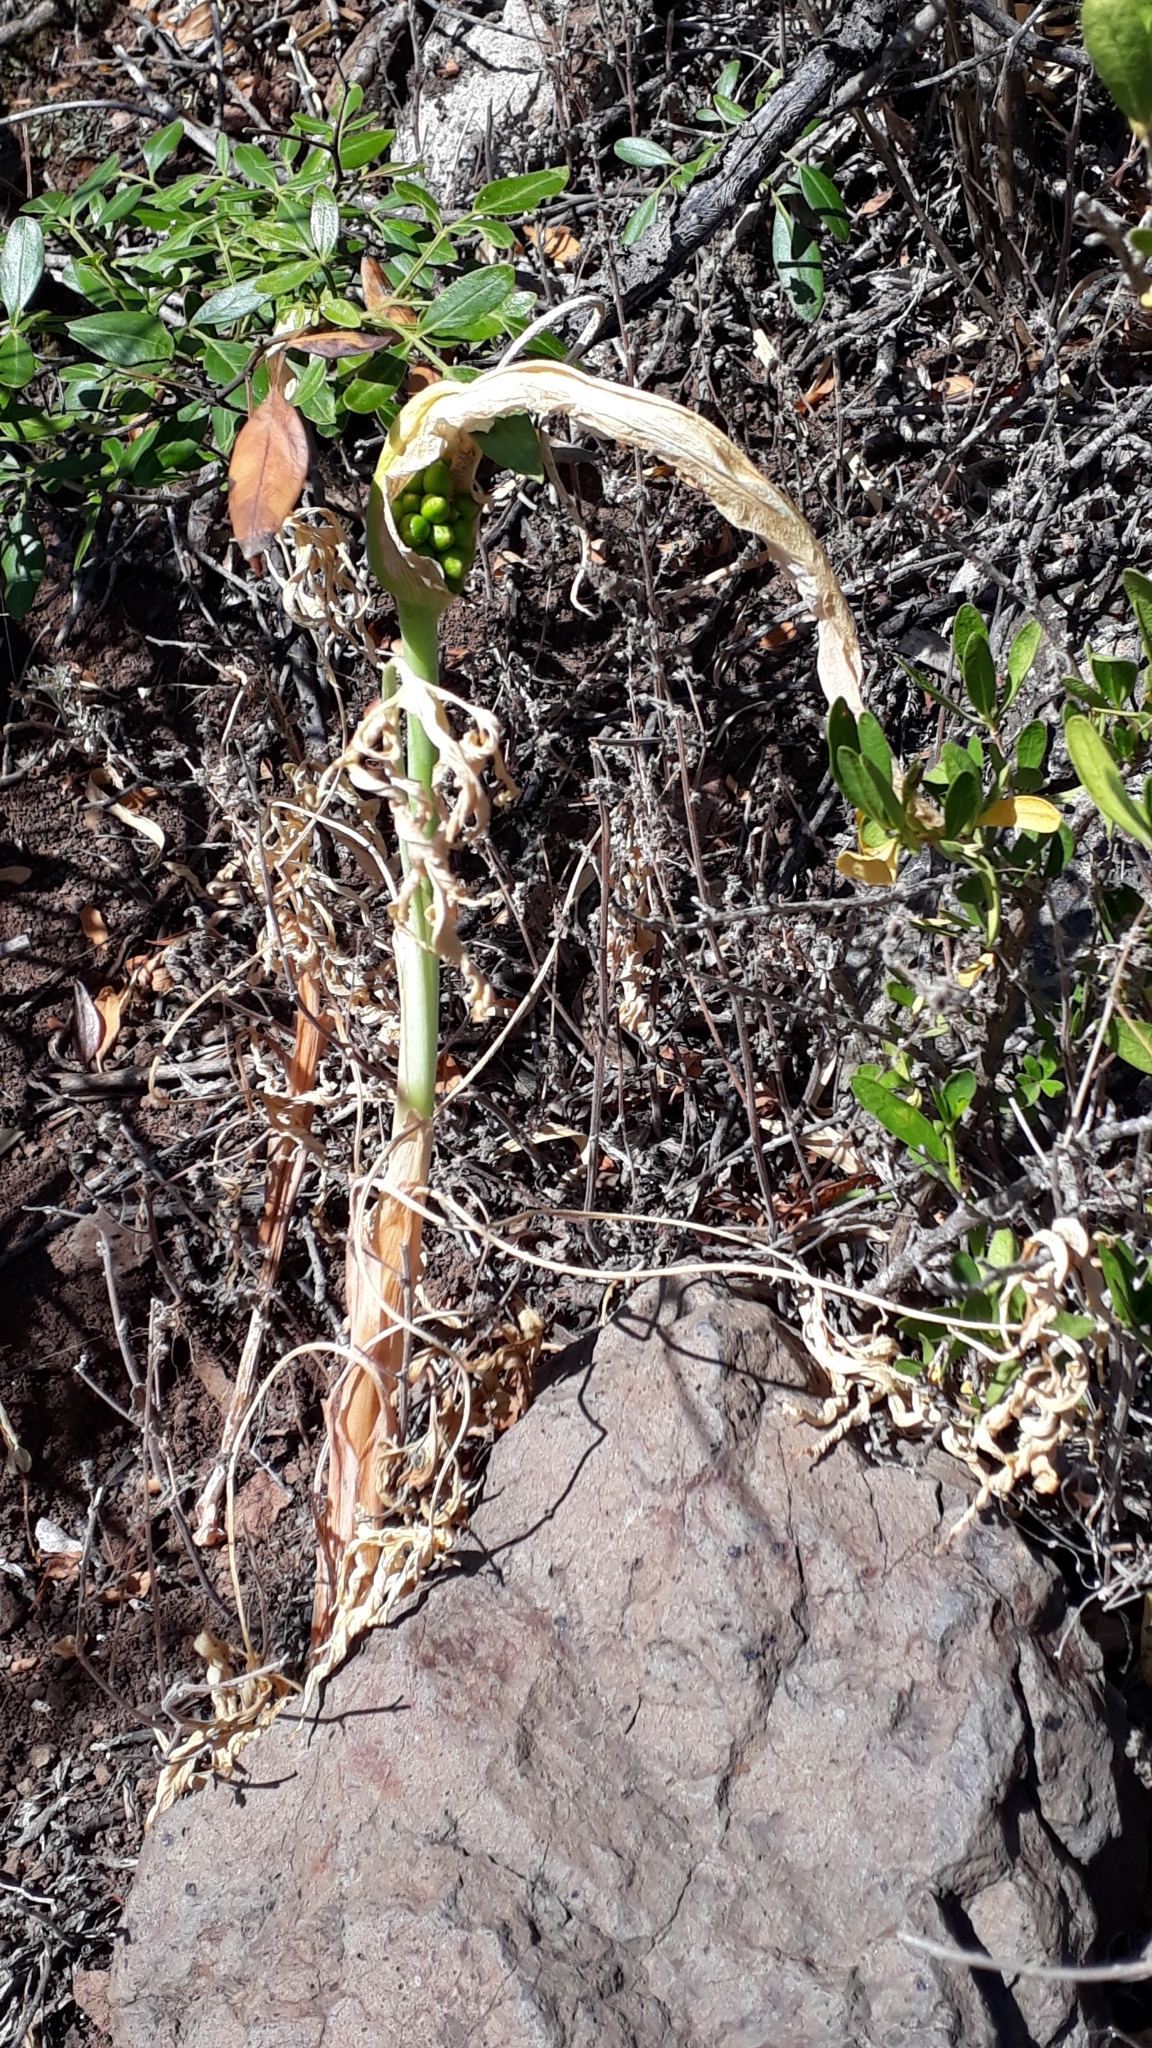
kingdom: Plantae
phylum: Tracheophyta
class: Liliopsida
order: Alismatales
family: Araceae
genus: Dracunculus
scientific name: Dracunculus canariensis
